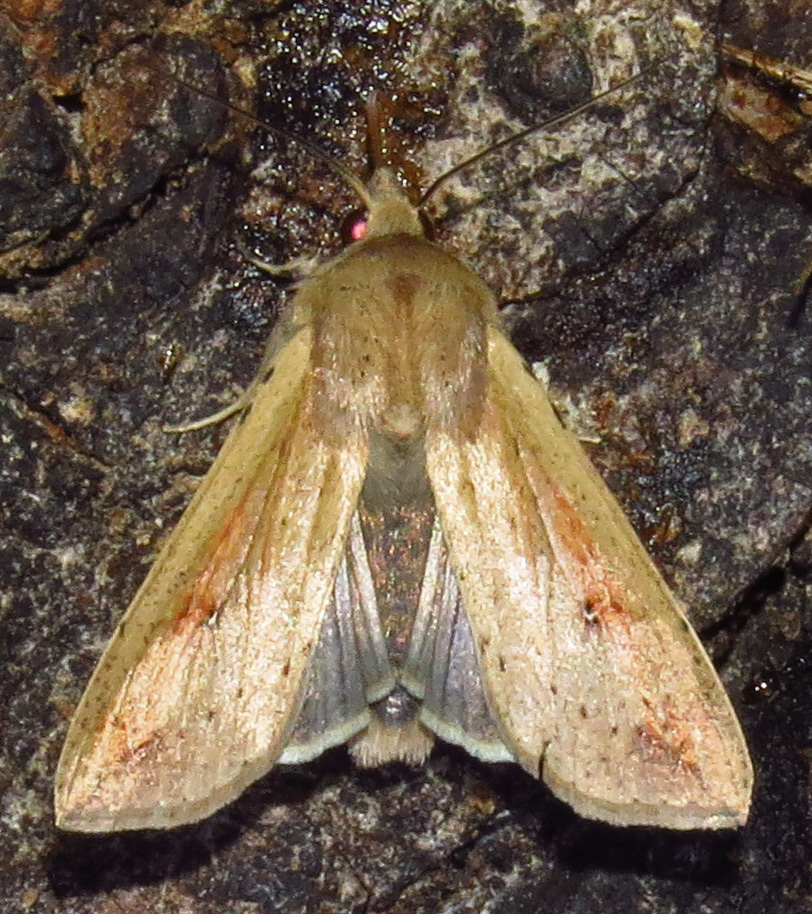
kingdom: Animalia
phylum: Arthropoda
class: Insecta
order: Lepidoptera
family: Noctuidae
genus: Mythimna
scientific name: Mythimna unipuncta
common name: White-speck
